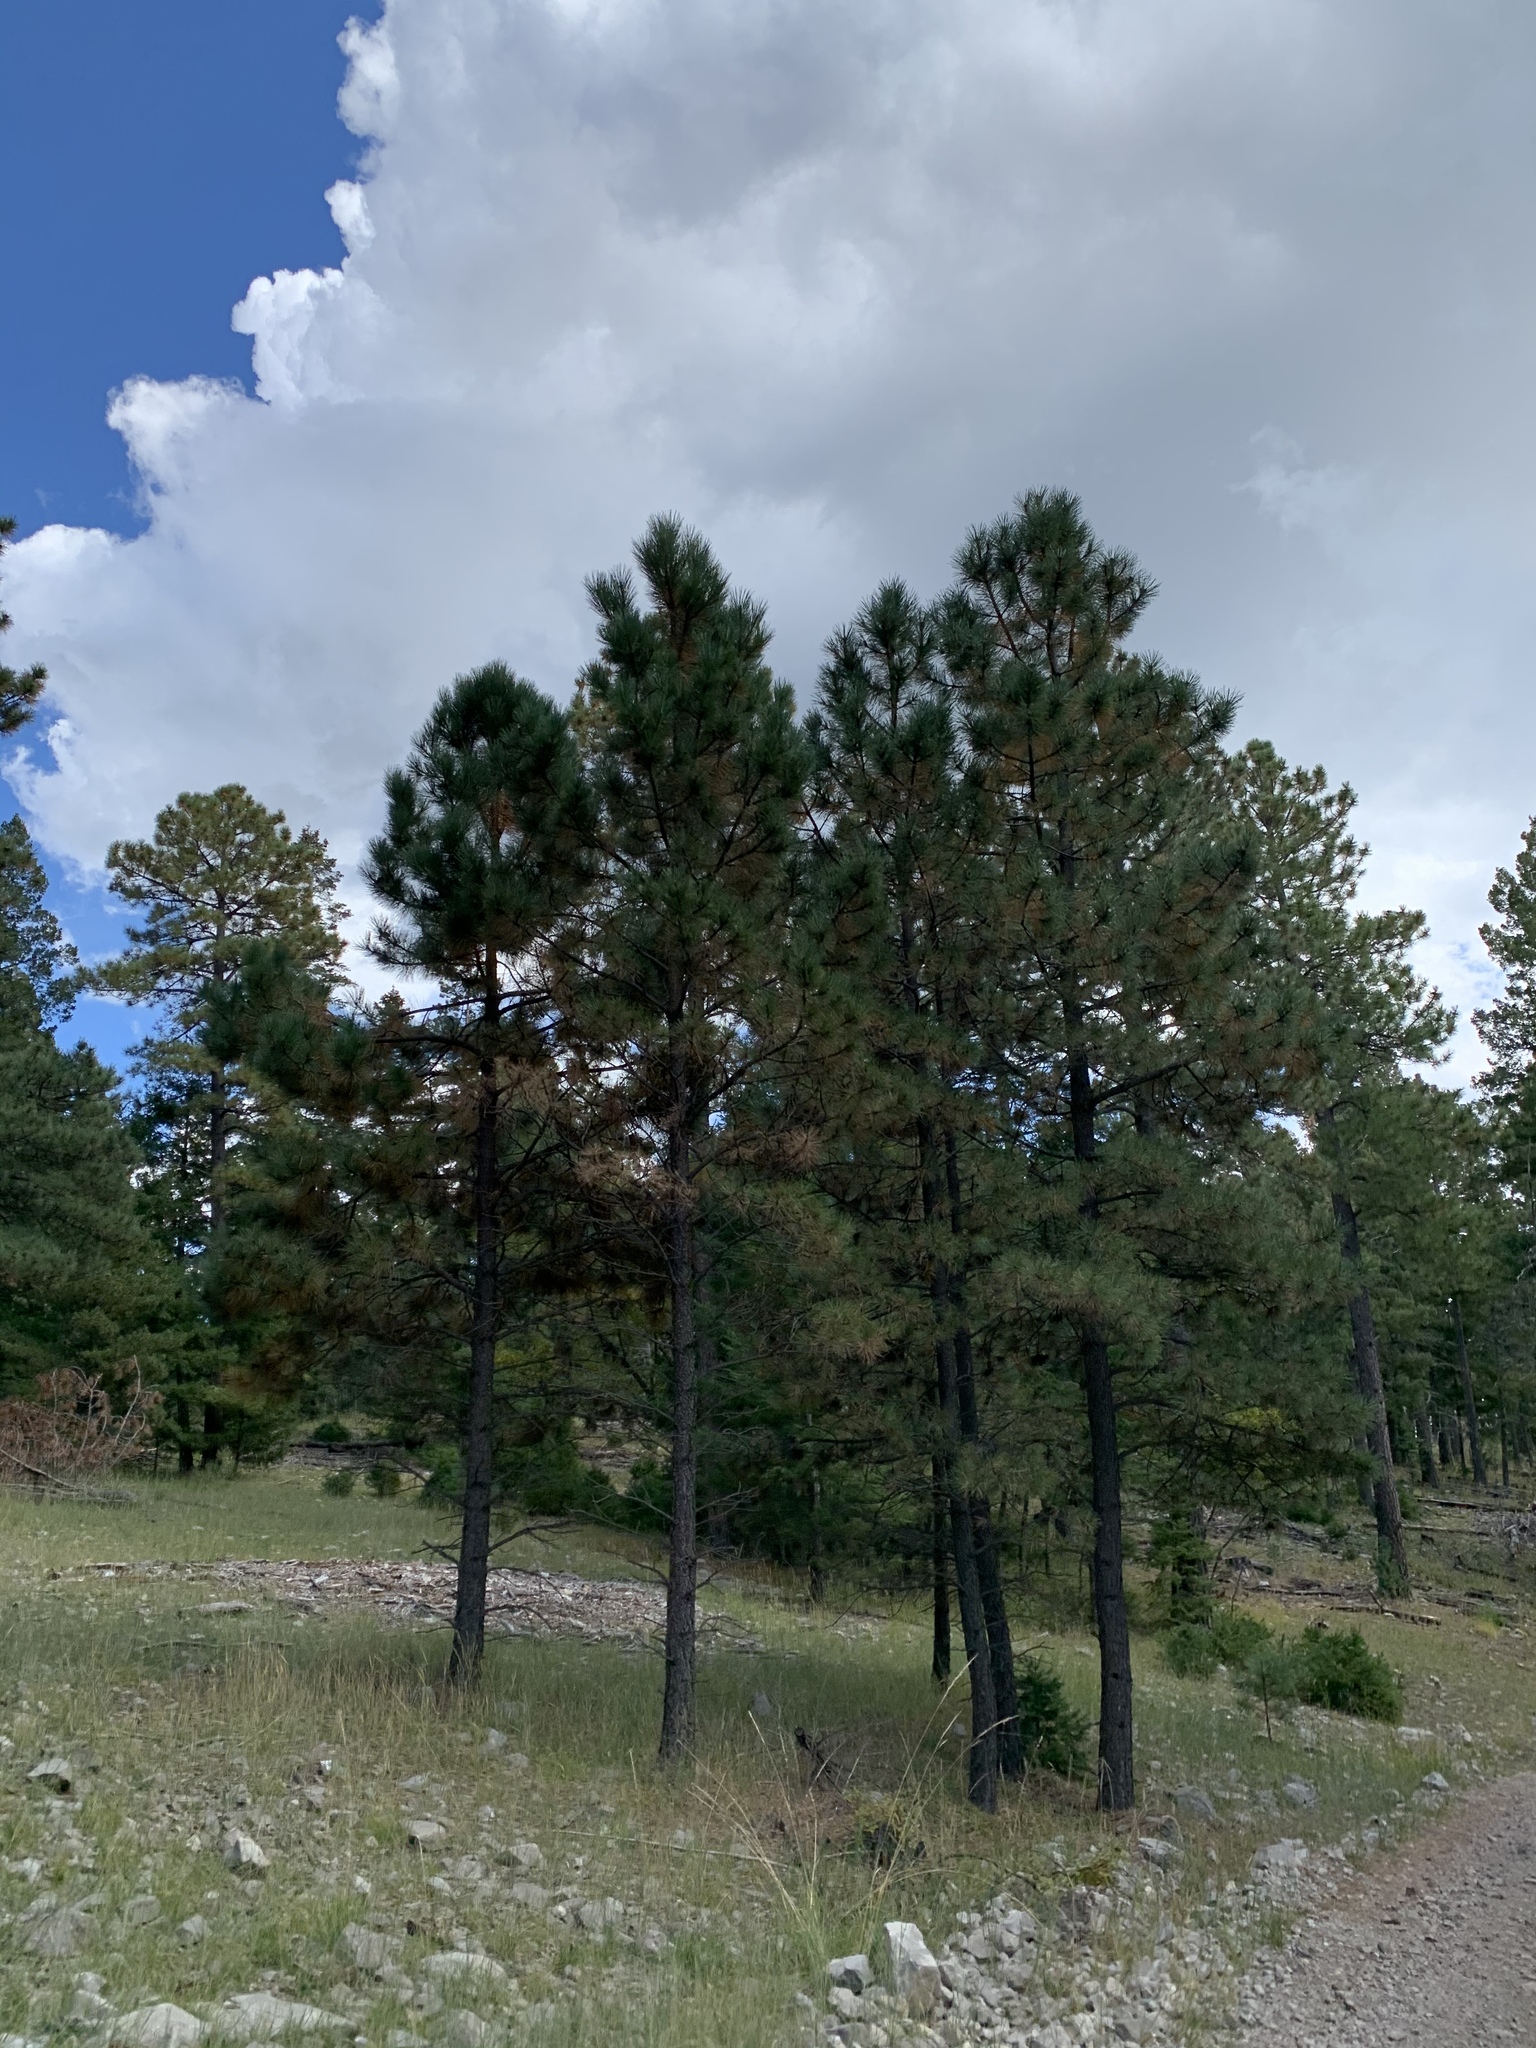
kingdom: Plantae
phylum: Tracheophyta
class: Pinopsida
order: Pinales
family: Pinaceae
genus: Pinus
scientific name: Pinus ponderosa
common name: Western yellow-pine
